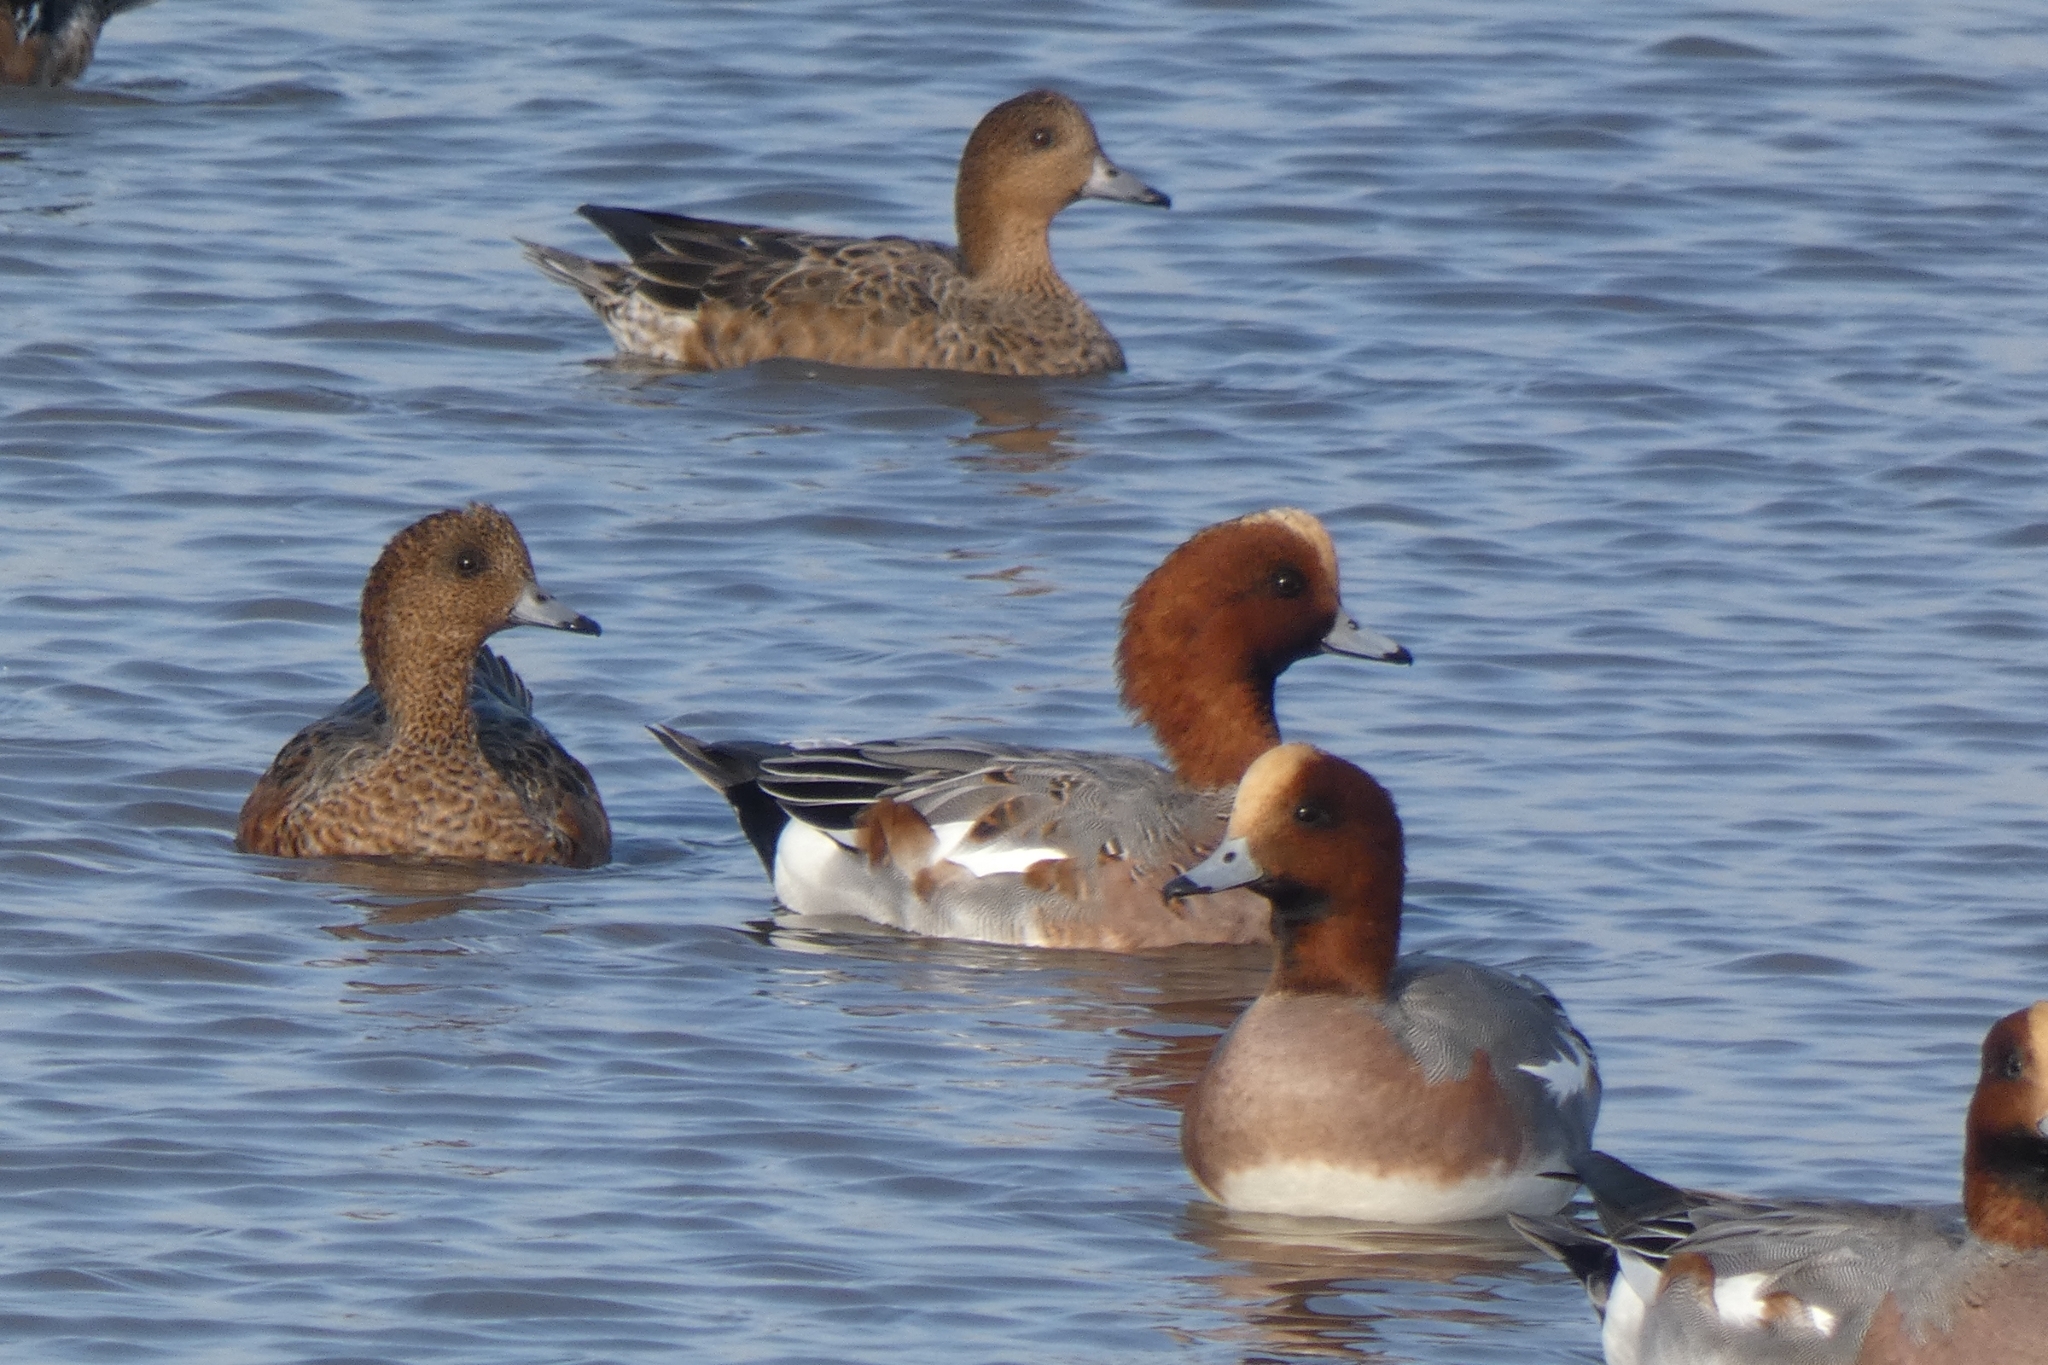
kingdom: Animalia
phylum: Chordata
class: Aves
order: Anseriformes
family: Anatidae
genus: Mareca
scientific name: Mareca penelope
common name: Eurasian wigeon
